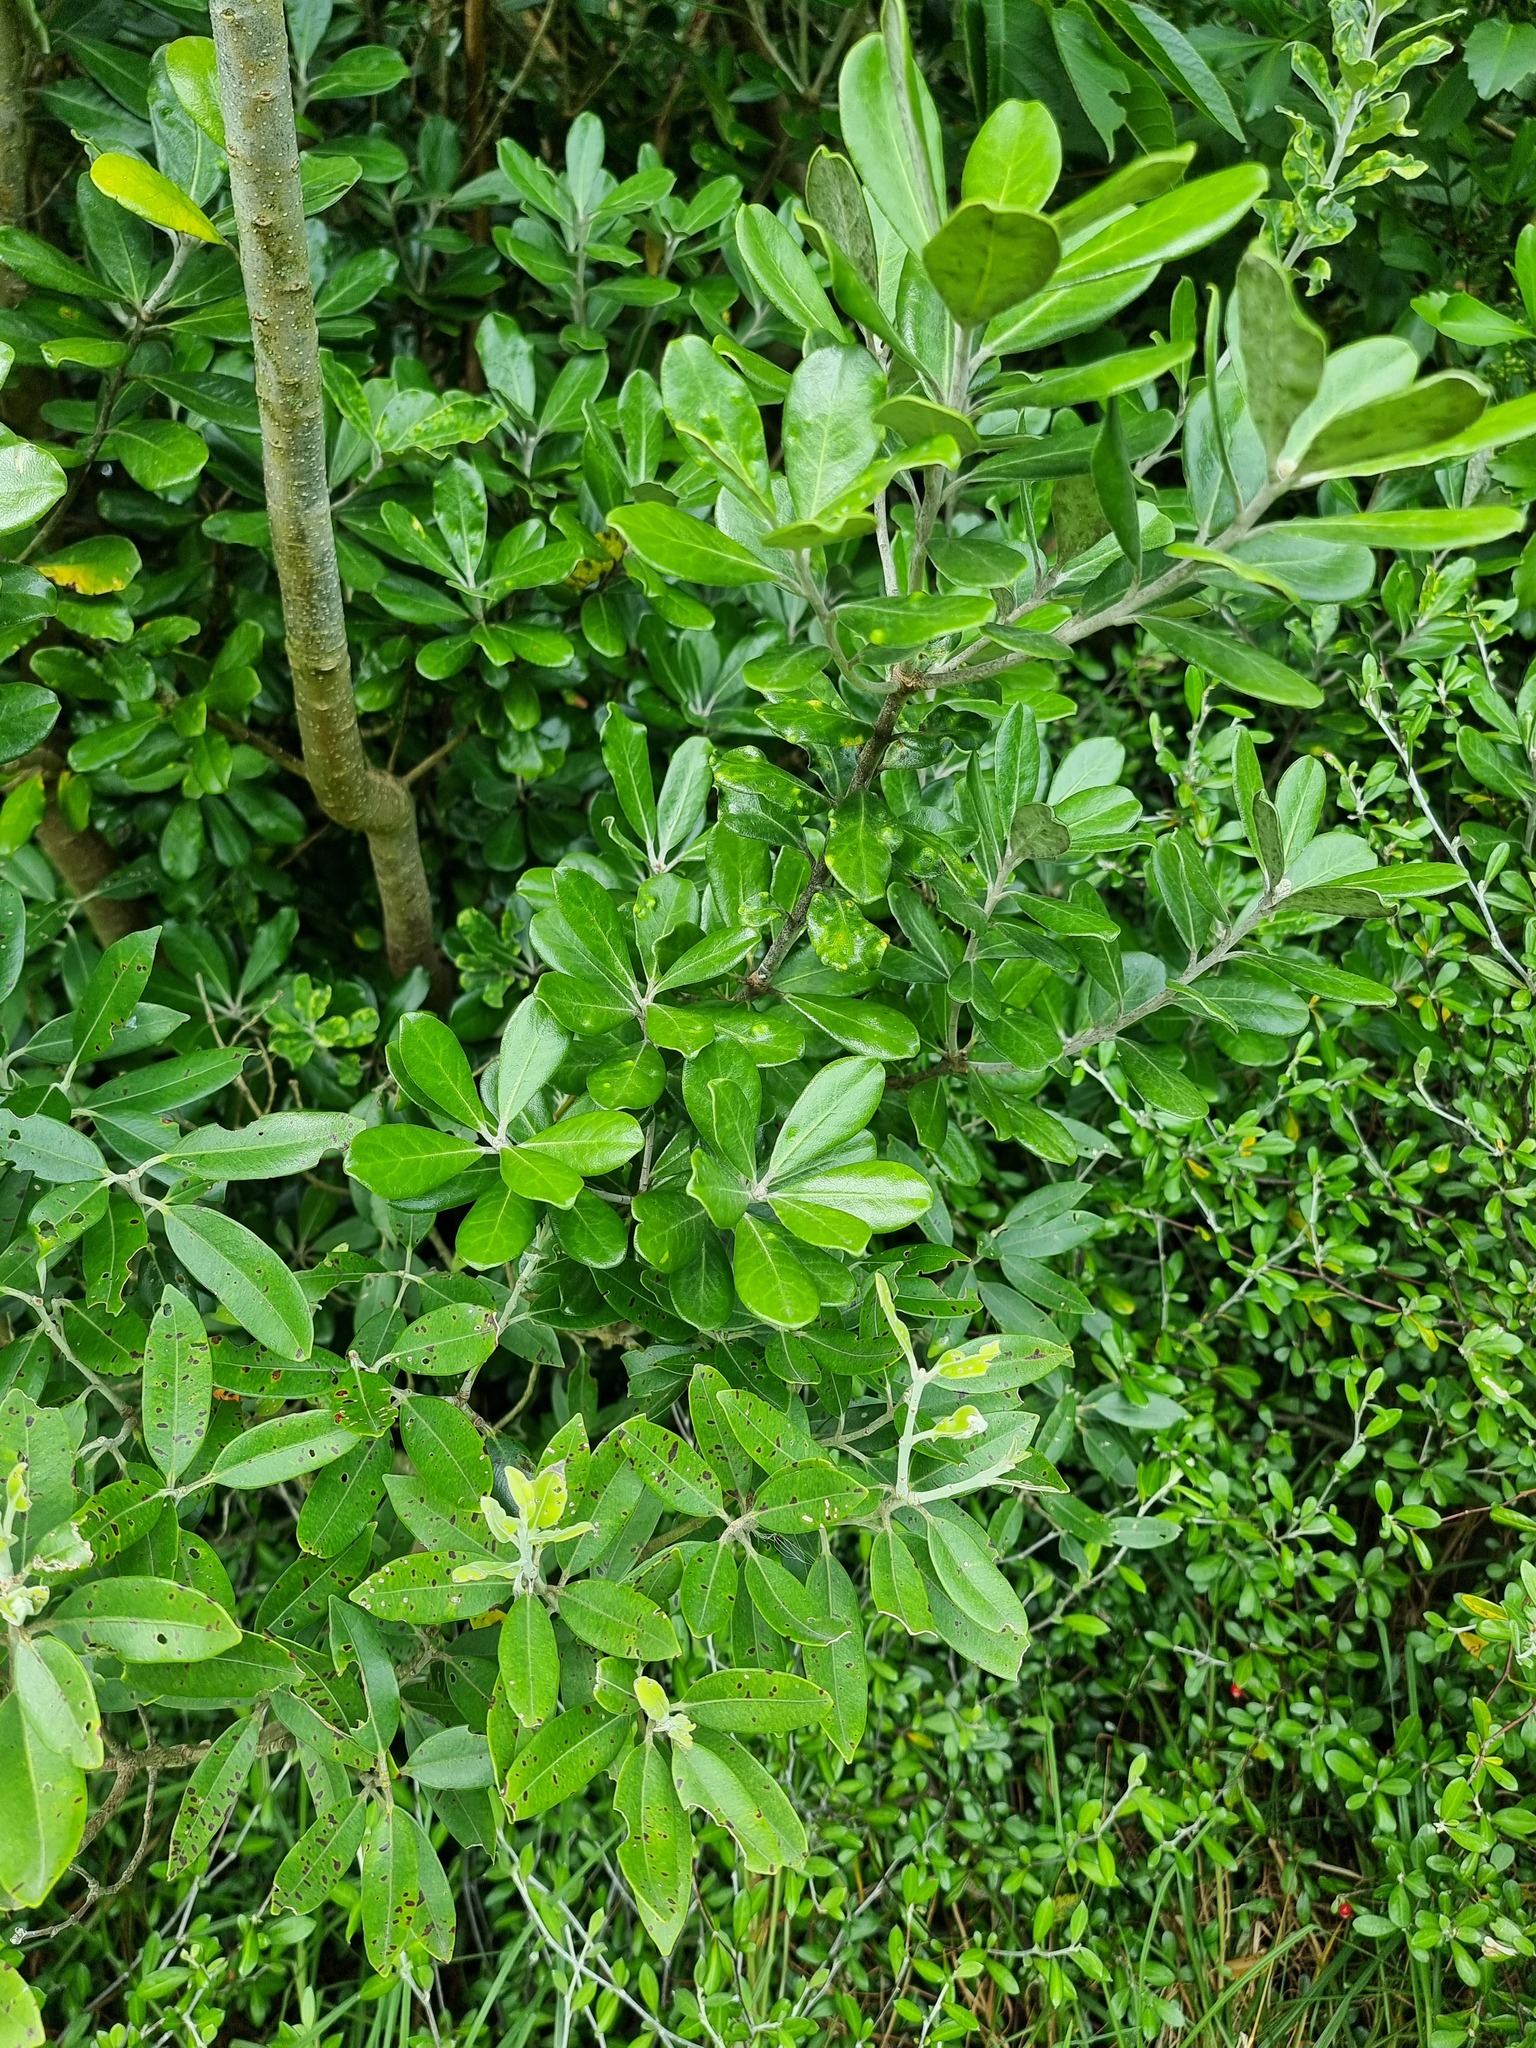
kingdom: Plantae
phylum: Tracheophyta
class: Magnoliopsida
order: Apiales
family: Pittosporaceae
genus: Pittosporum
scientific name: Pittosporum crassifolium
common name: Karo
